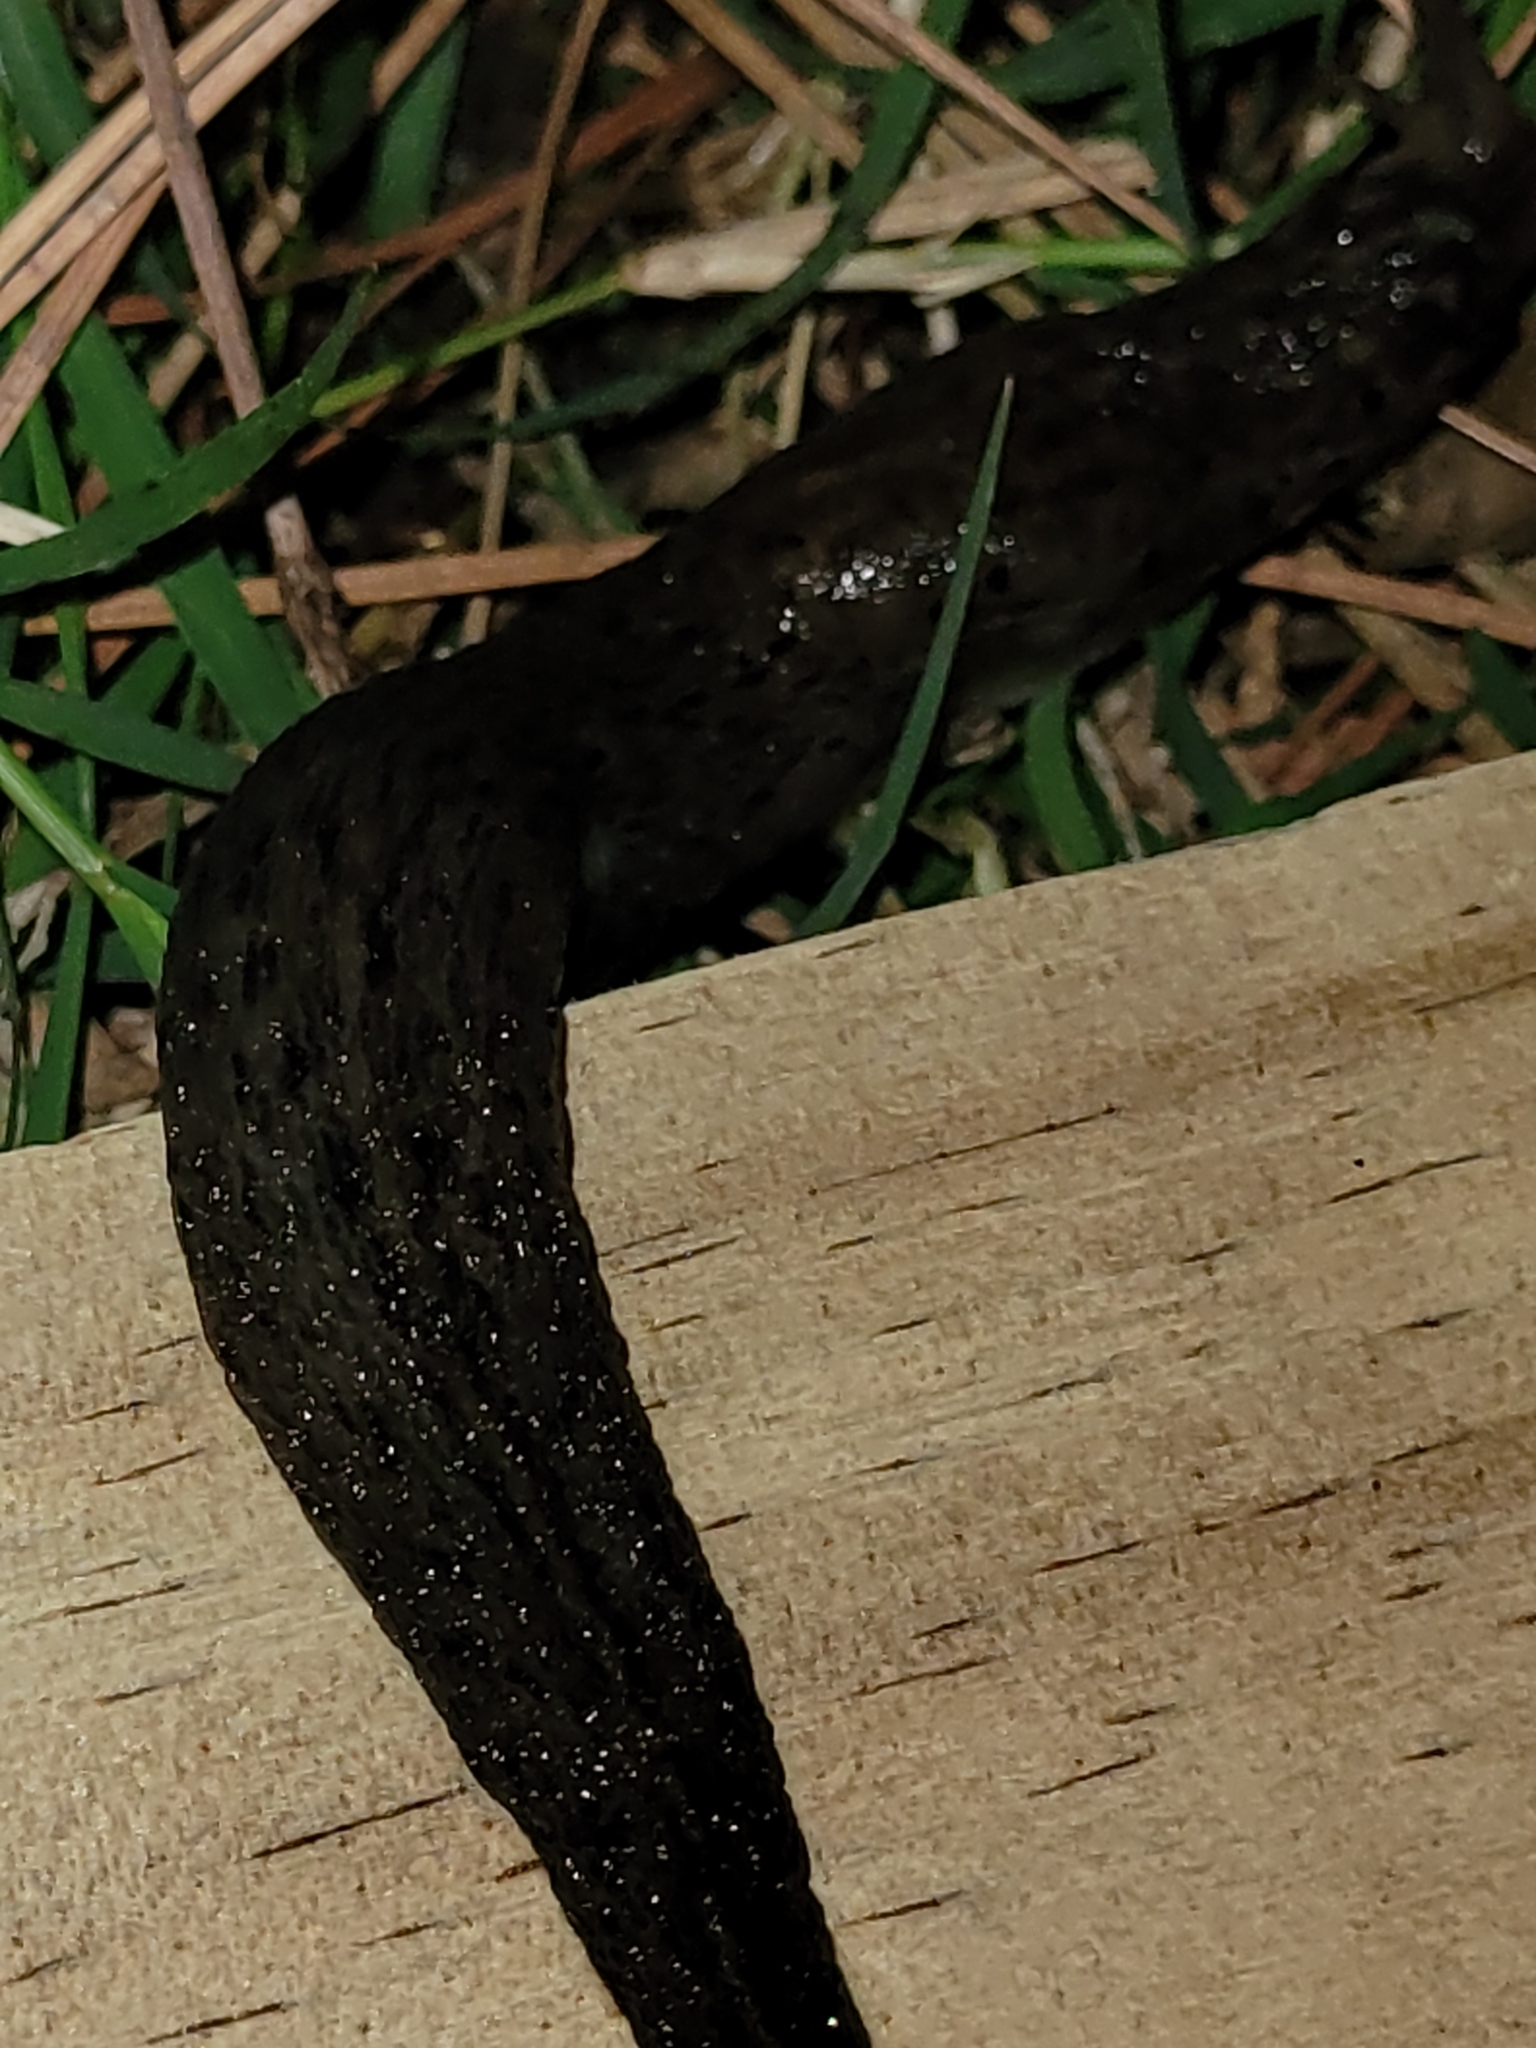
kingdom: Animalia
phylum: Mollusca
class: Gastropoda
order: Stylommatophora
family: Limacidae
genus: Limax
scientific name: Limax maximus
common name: Great grey slug
